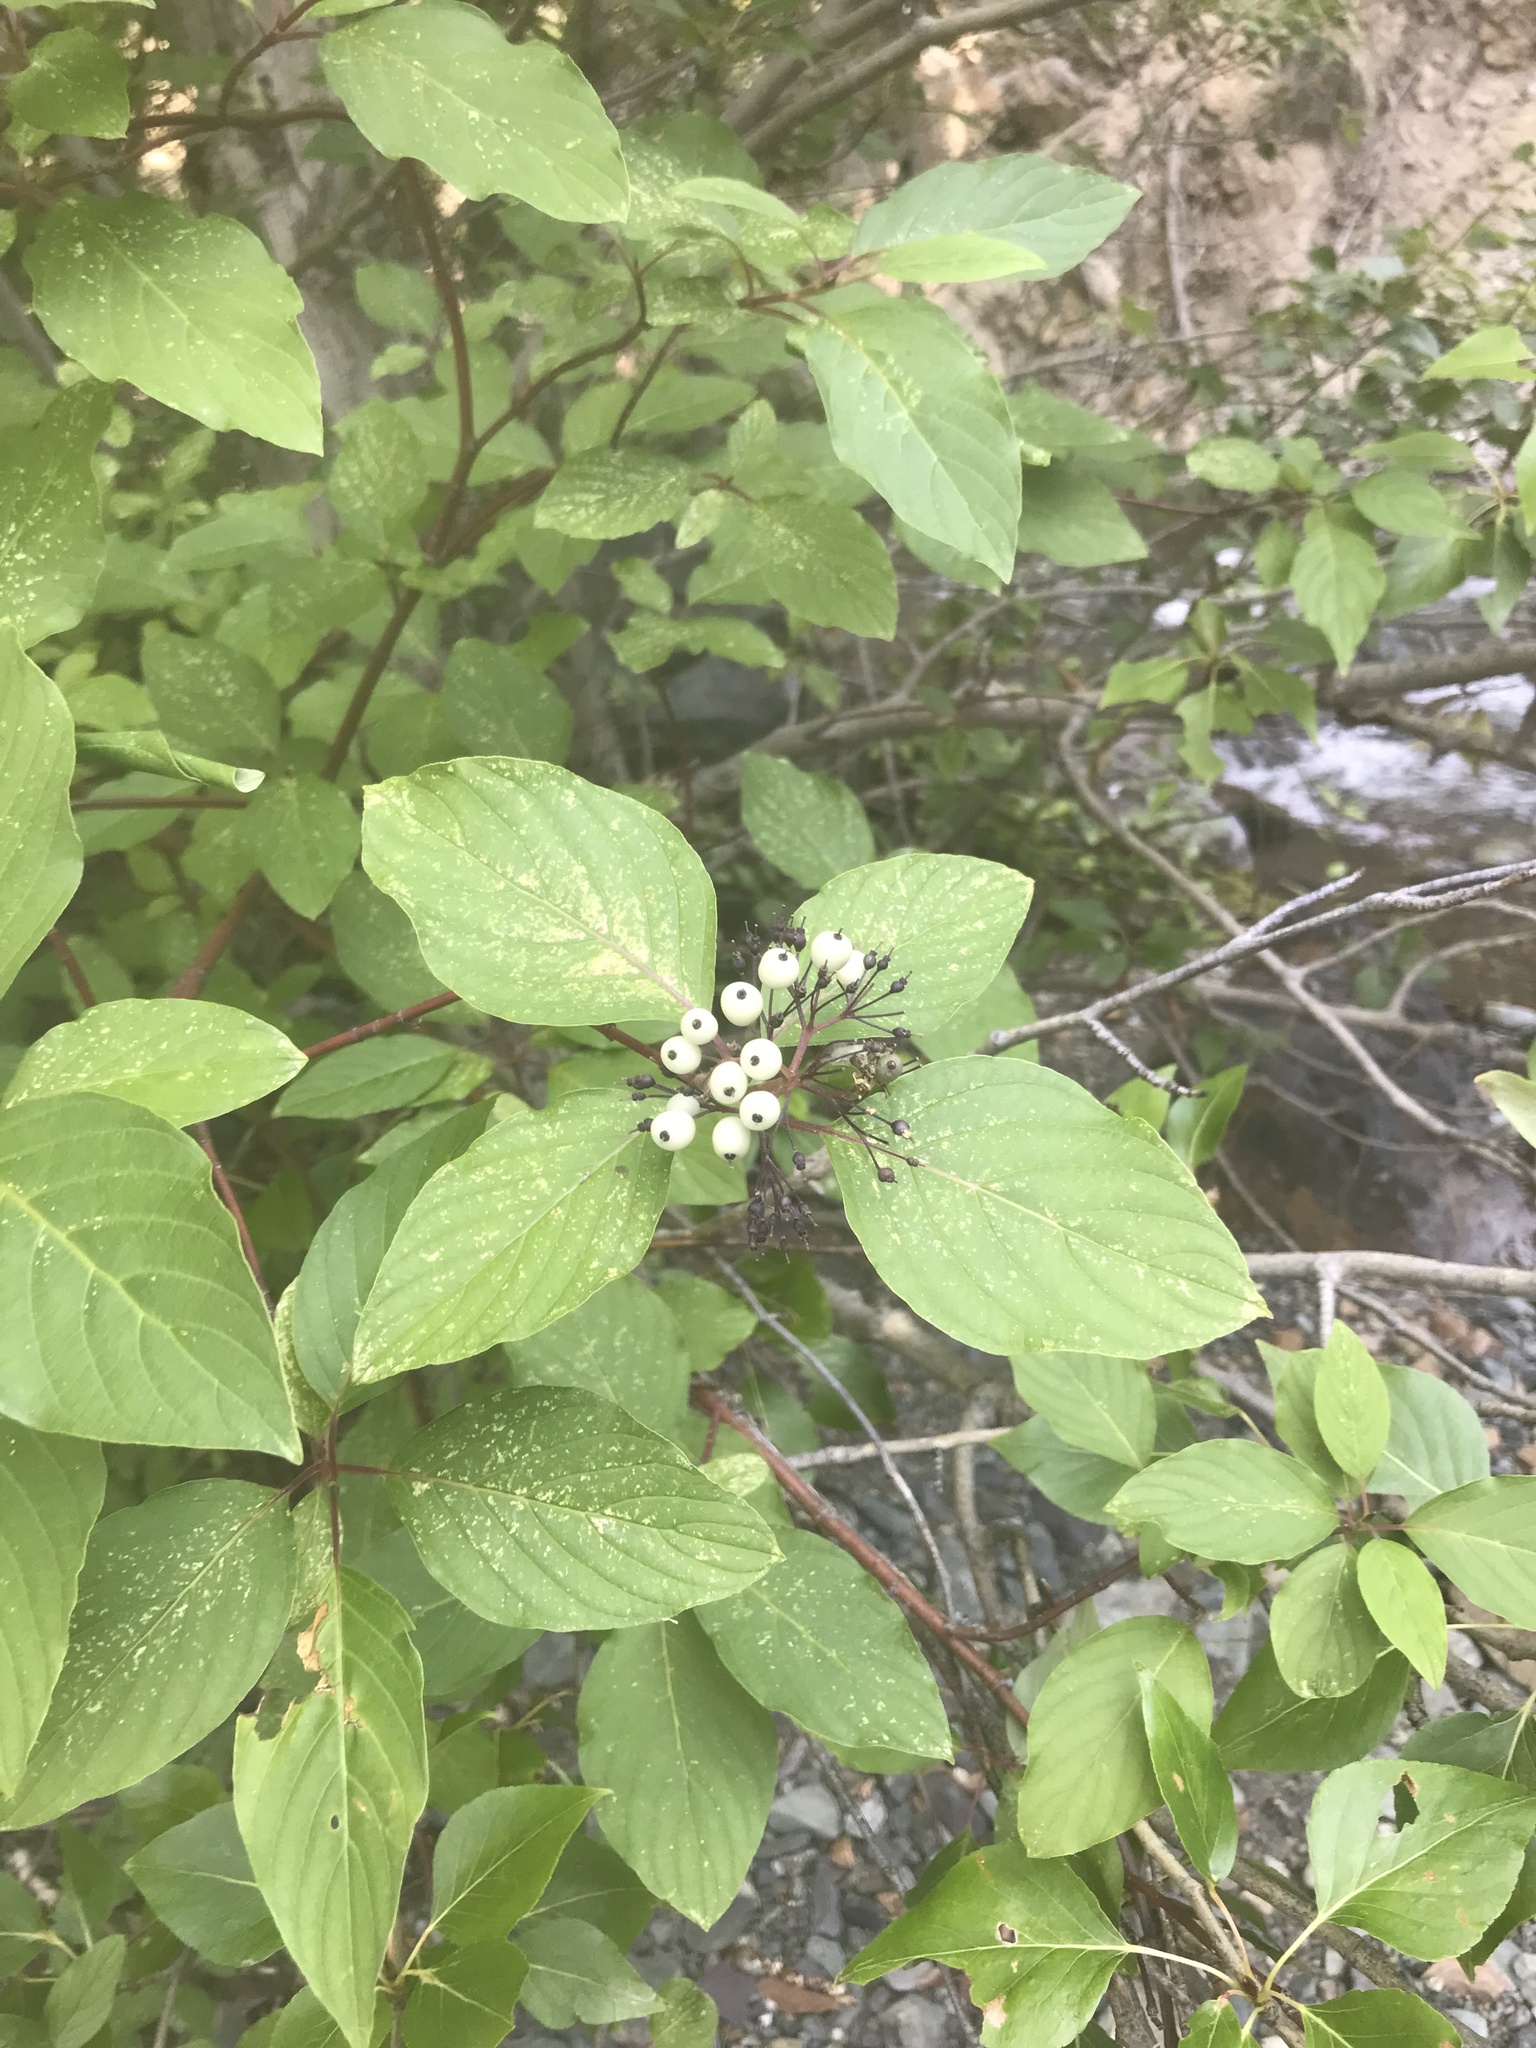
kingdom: Plantae
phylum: Tracheophyta
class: Magnoliopsida
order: Cornales
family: Cornaceae
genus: Cornus
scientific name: Cornus sericea
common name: Red-osier dogwood
